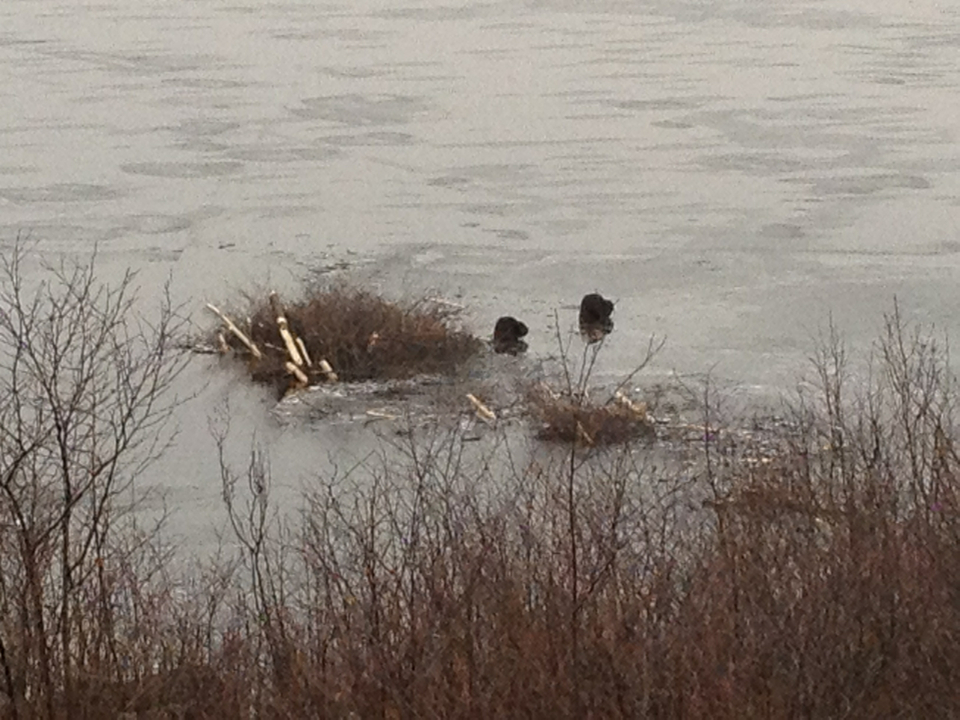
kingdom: Animalia
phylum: Chordata
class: Mammalia
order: Rodentia
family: Castoridae
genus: Castor
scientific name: Castor canadensis
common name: American beaver
